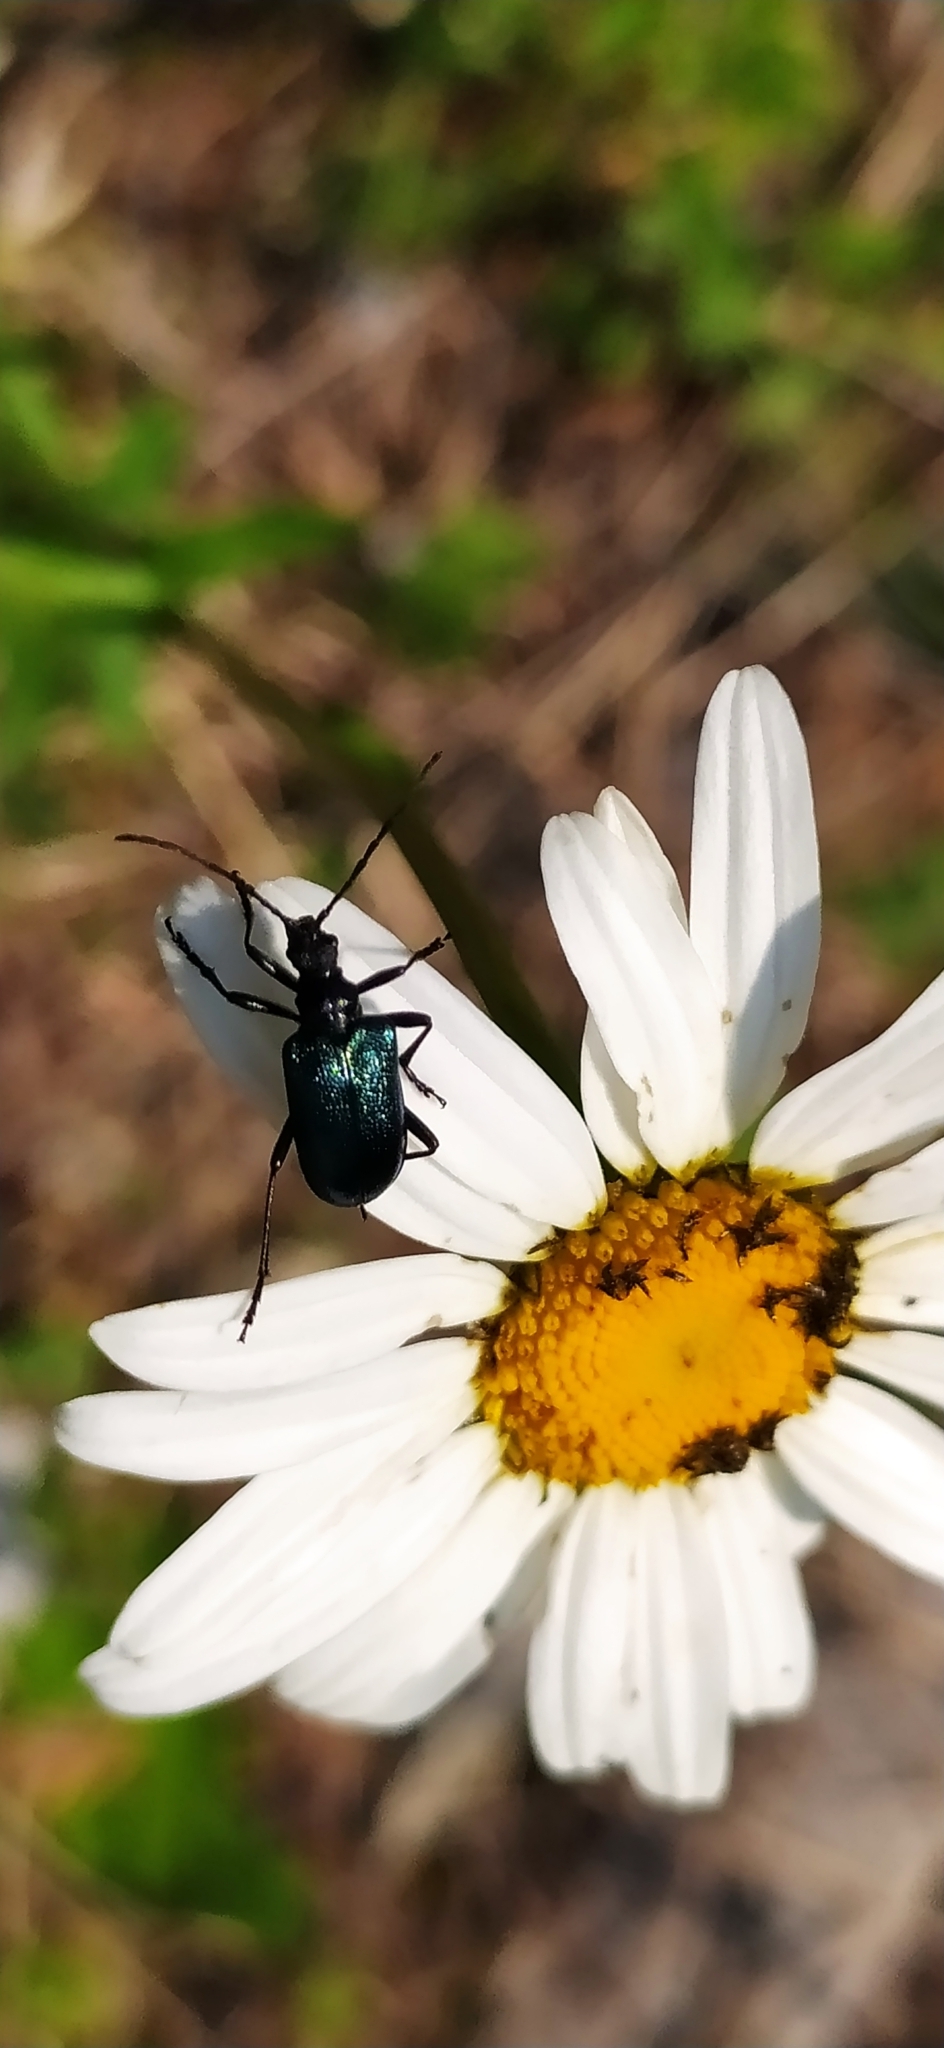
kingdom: Animalia
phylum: Arthropoda
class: Insecta
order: Coleoptera
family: Cerambycidae
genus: Gaurotes
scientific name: Gaurotes virginea
